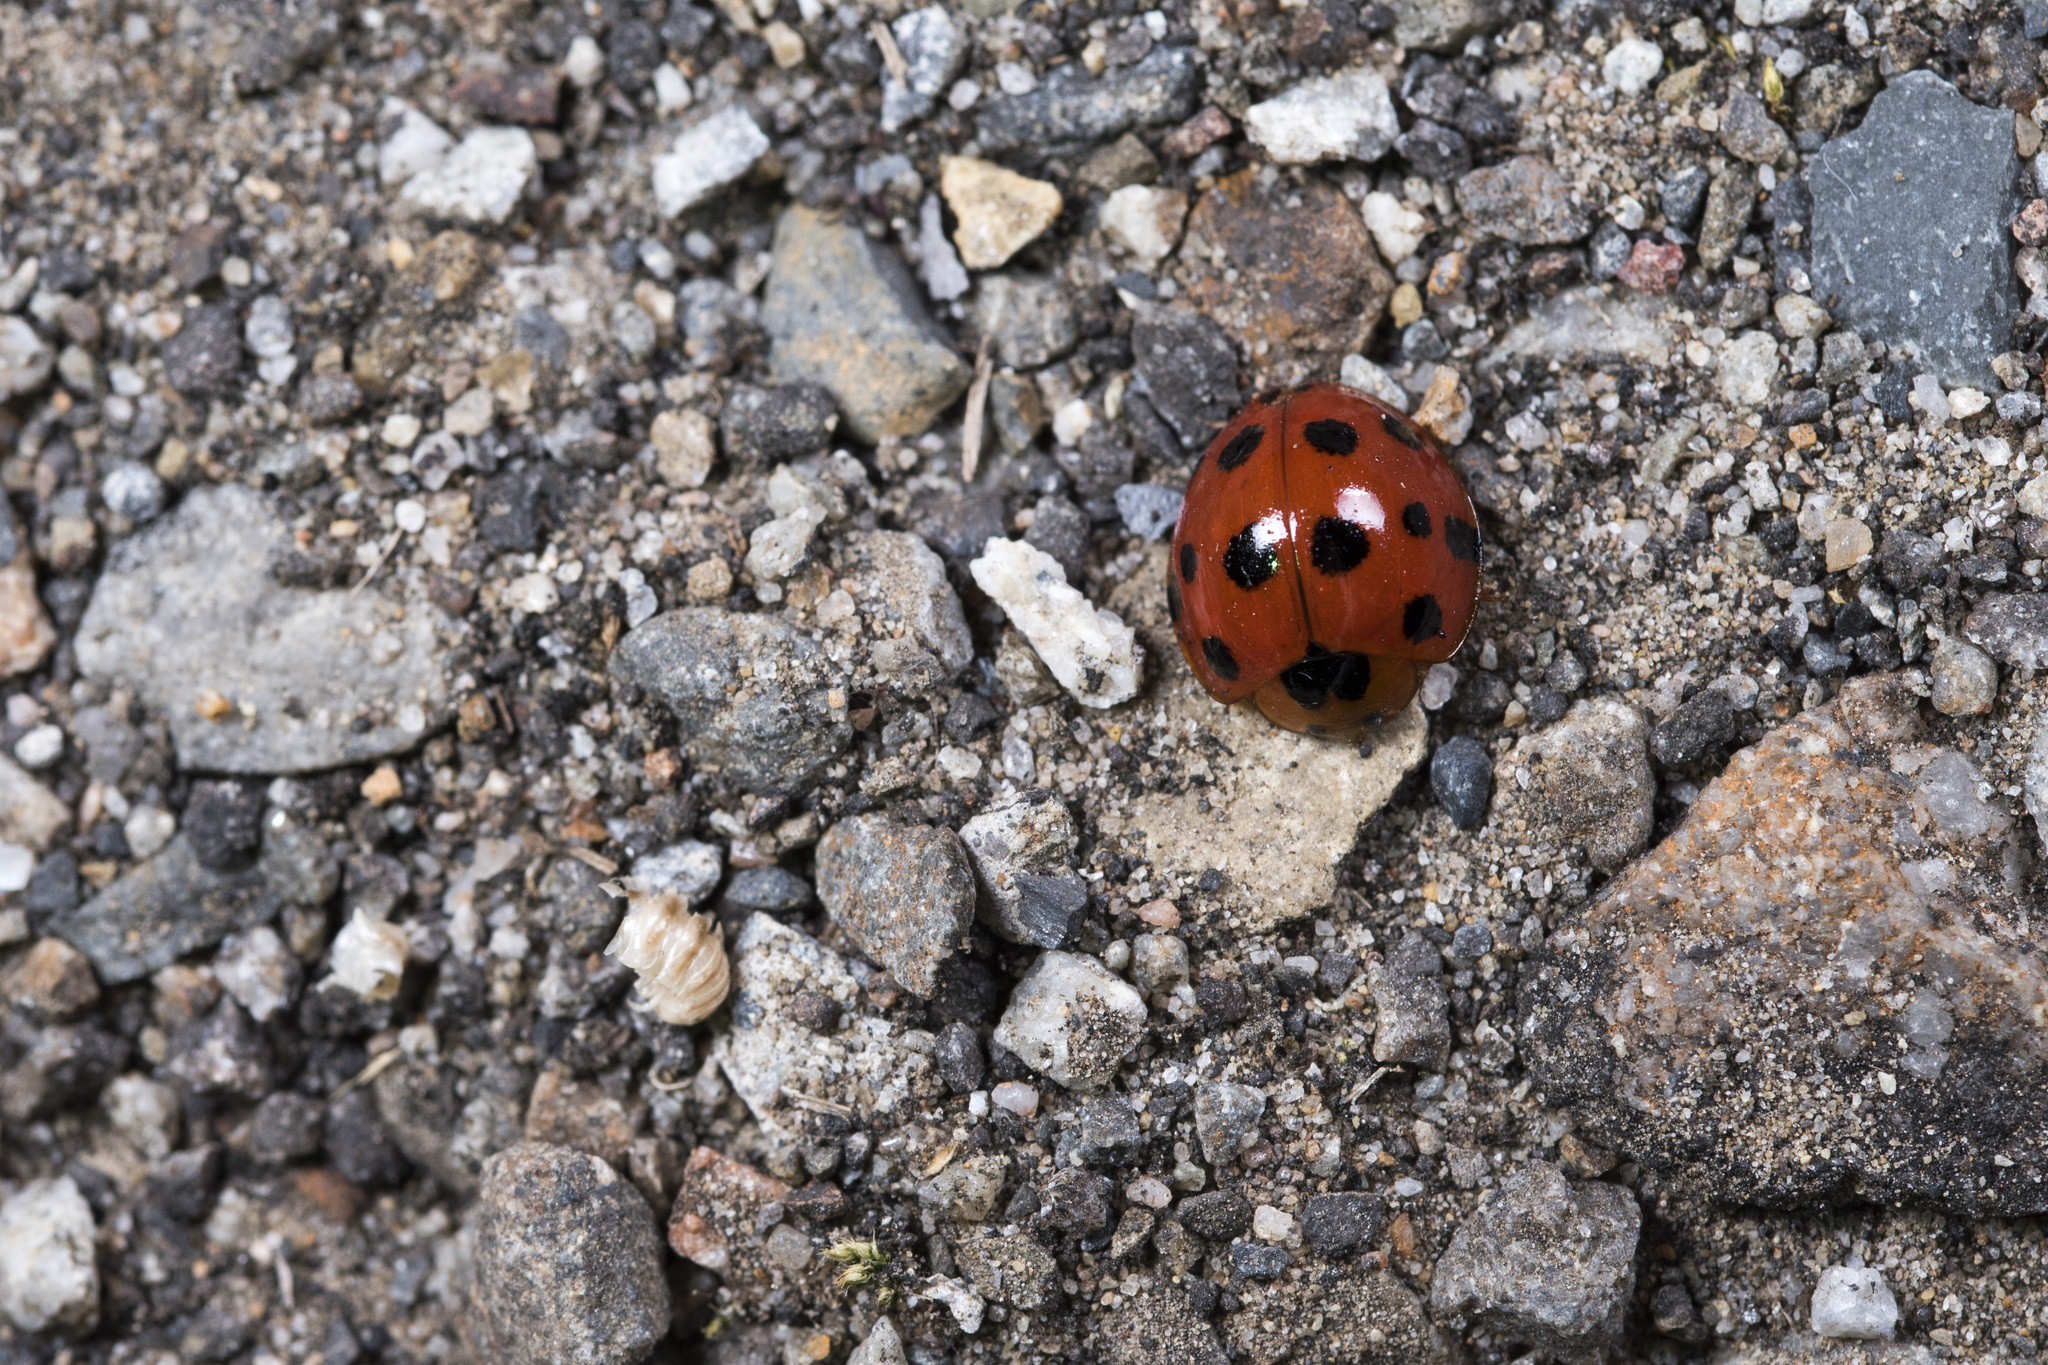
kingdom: Animalia
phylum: Arthropoda
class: Insecta
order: Coleoptera
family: Coccinellidae
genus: Harmonia
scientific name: Harmonia dimidiata
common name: Ladybird beetle
